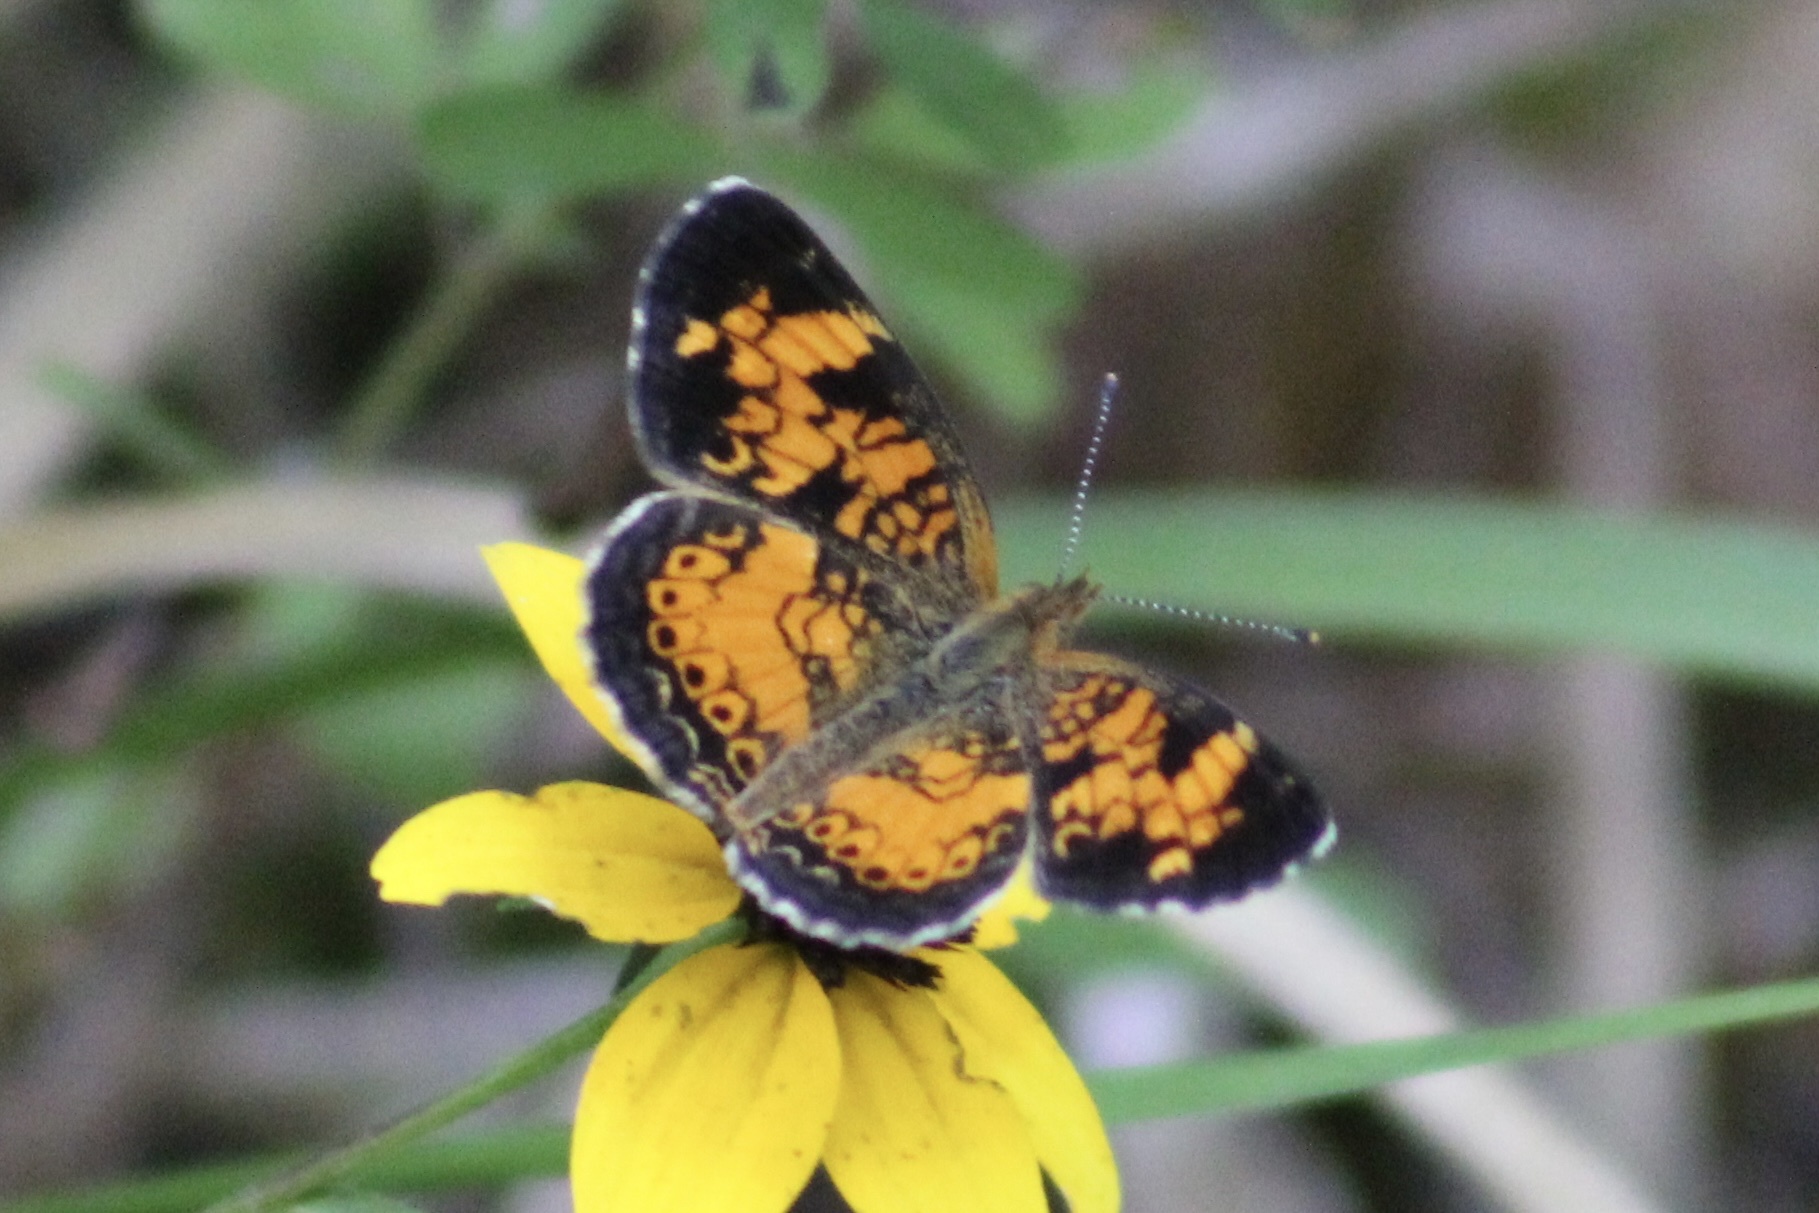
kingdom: Animalia
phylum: Arthropoda
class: Insecta
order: Lepidoptera
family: Nymphalidae
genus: Phyciodes
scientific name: Phyciodes tharos
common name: Pearl crescent
